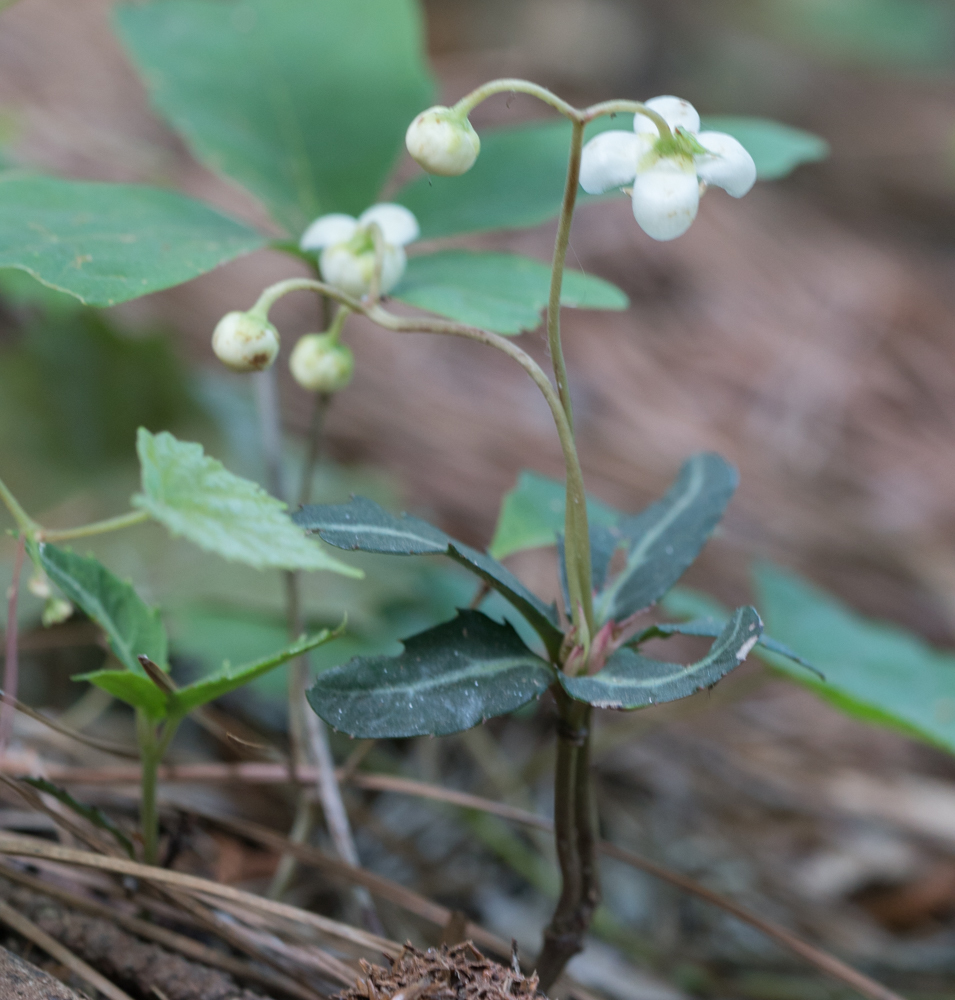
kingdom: Plantae
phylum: Tracheophyta
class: Magnoliopsida
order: Ericales
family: Ericaceae
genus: Chimaphila
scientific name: Chimaphila maculata
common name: Spotted pipsissewa
